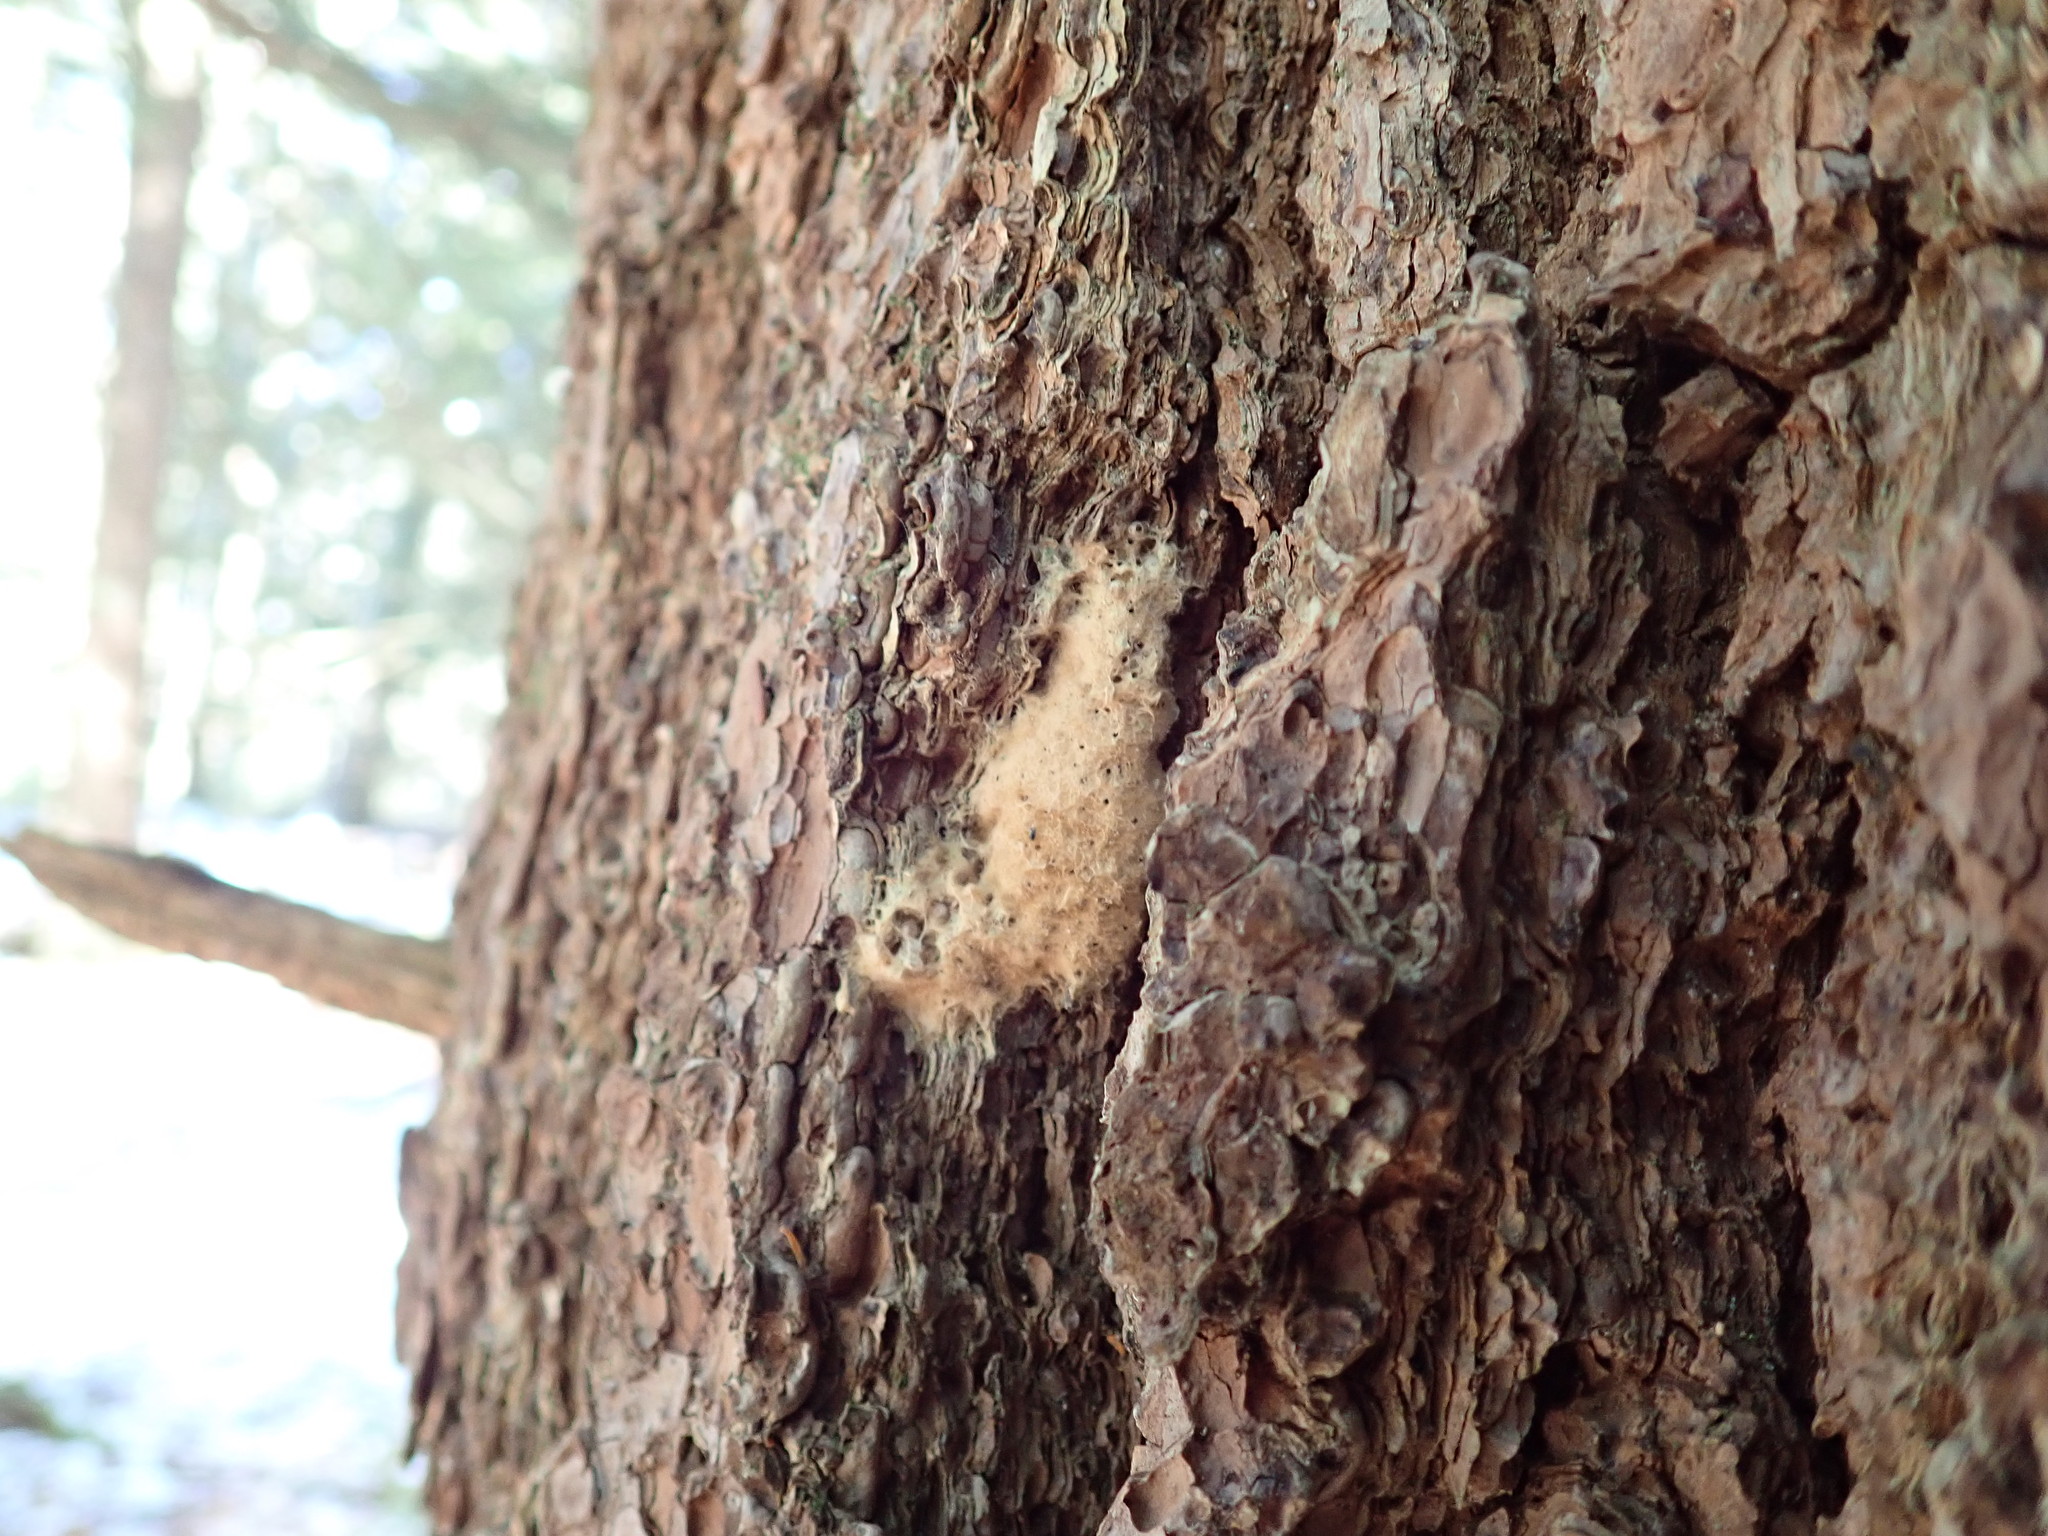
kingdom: Animalia
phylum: Arthropoda
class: Insecta
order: Lepidoptera
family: Erebidae
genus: Lymantria
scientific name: Lymantria dispar
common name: Gypsy moth
